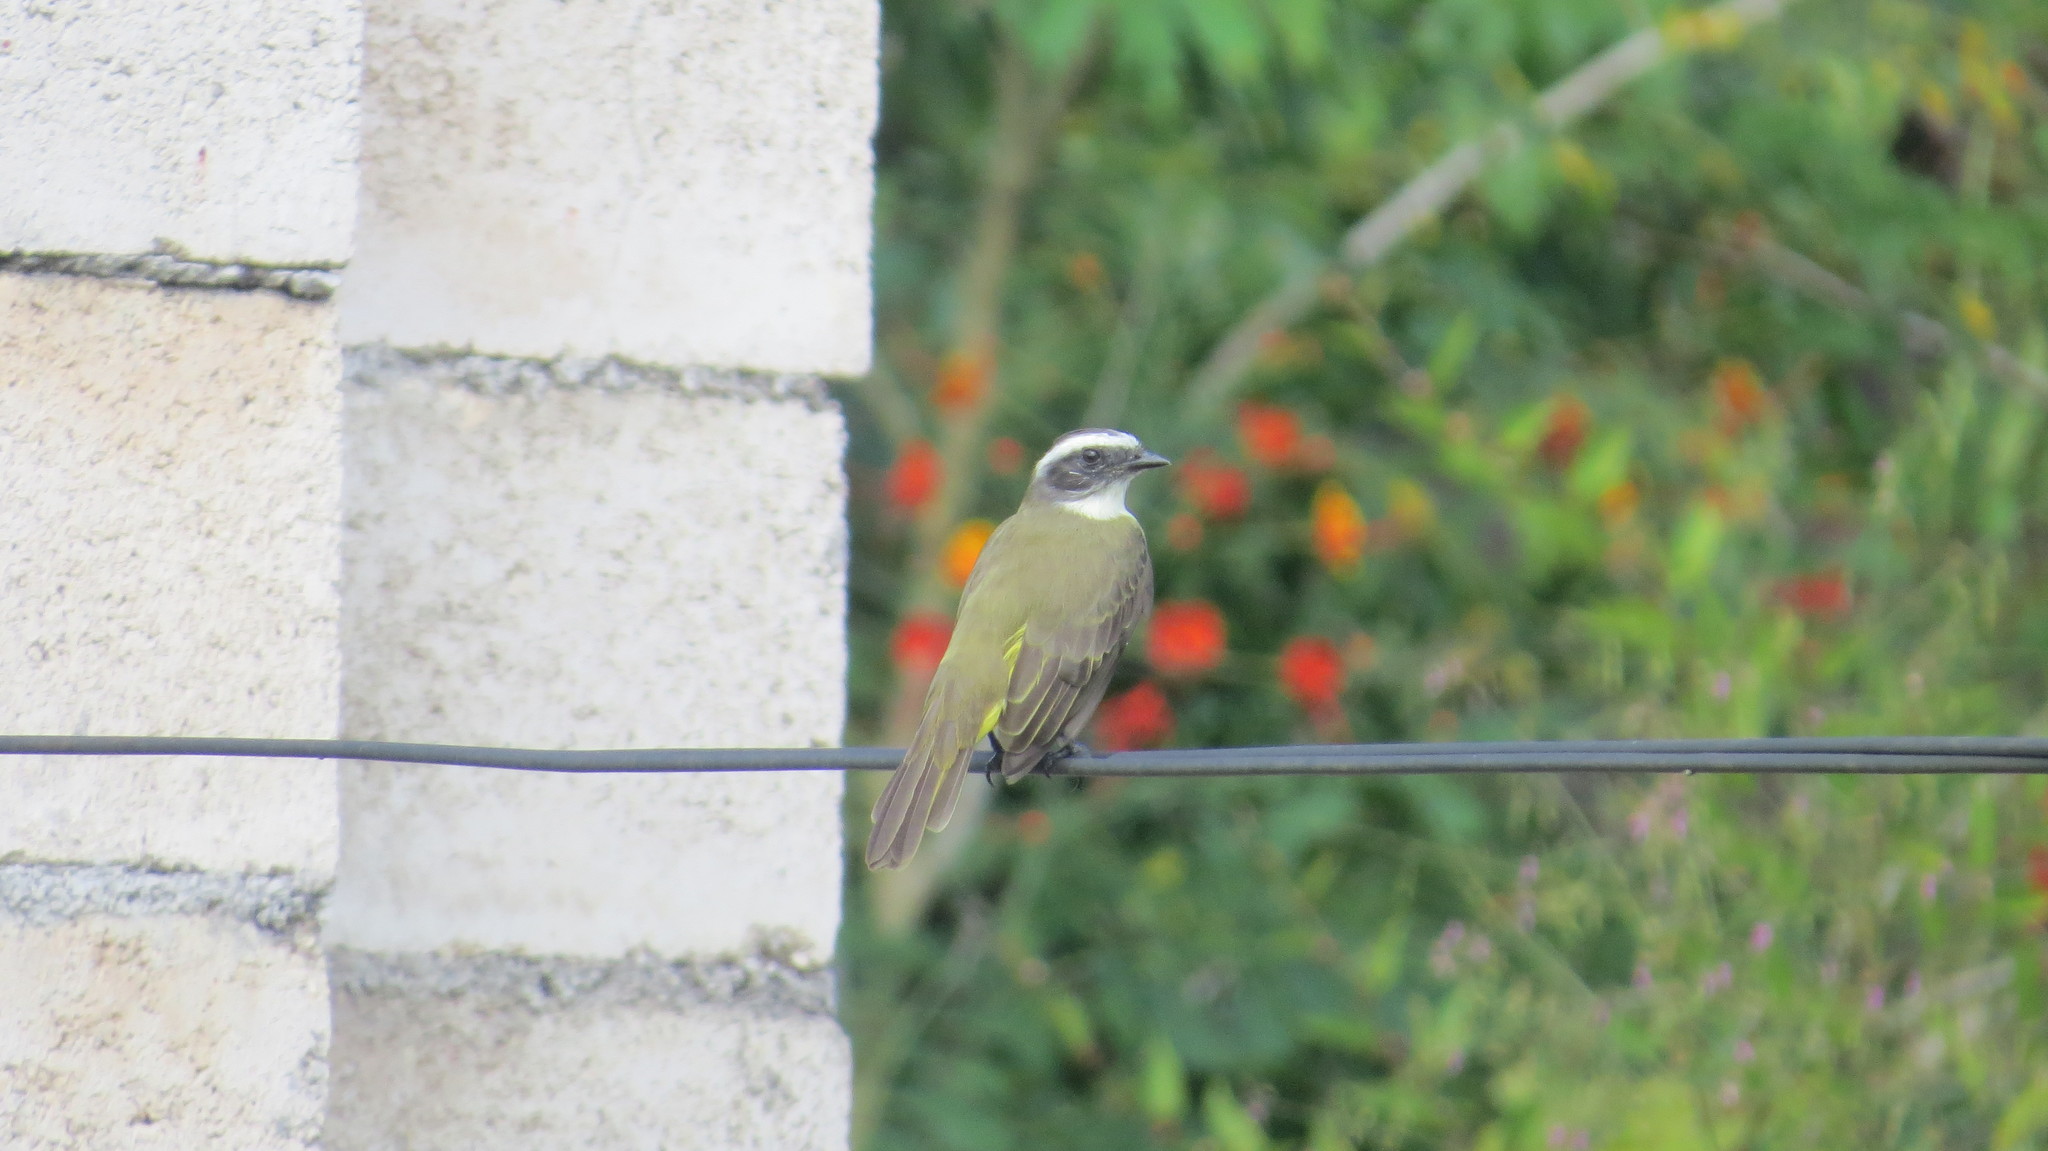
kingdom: Animalia
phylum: Chordata
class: Aves
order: Passeriformes
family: Tyrannidae
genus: Myiozetetes
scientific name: Myiozetetes similis
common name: Social flycatcher
